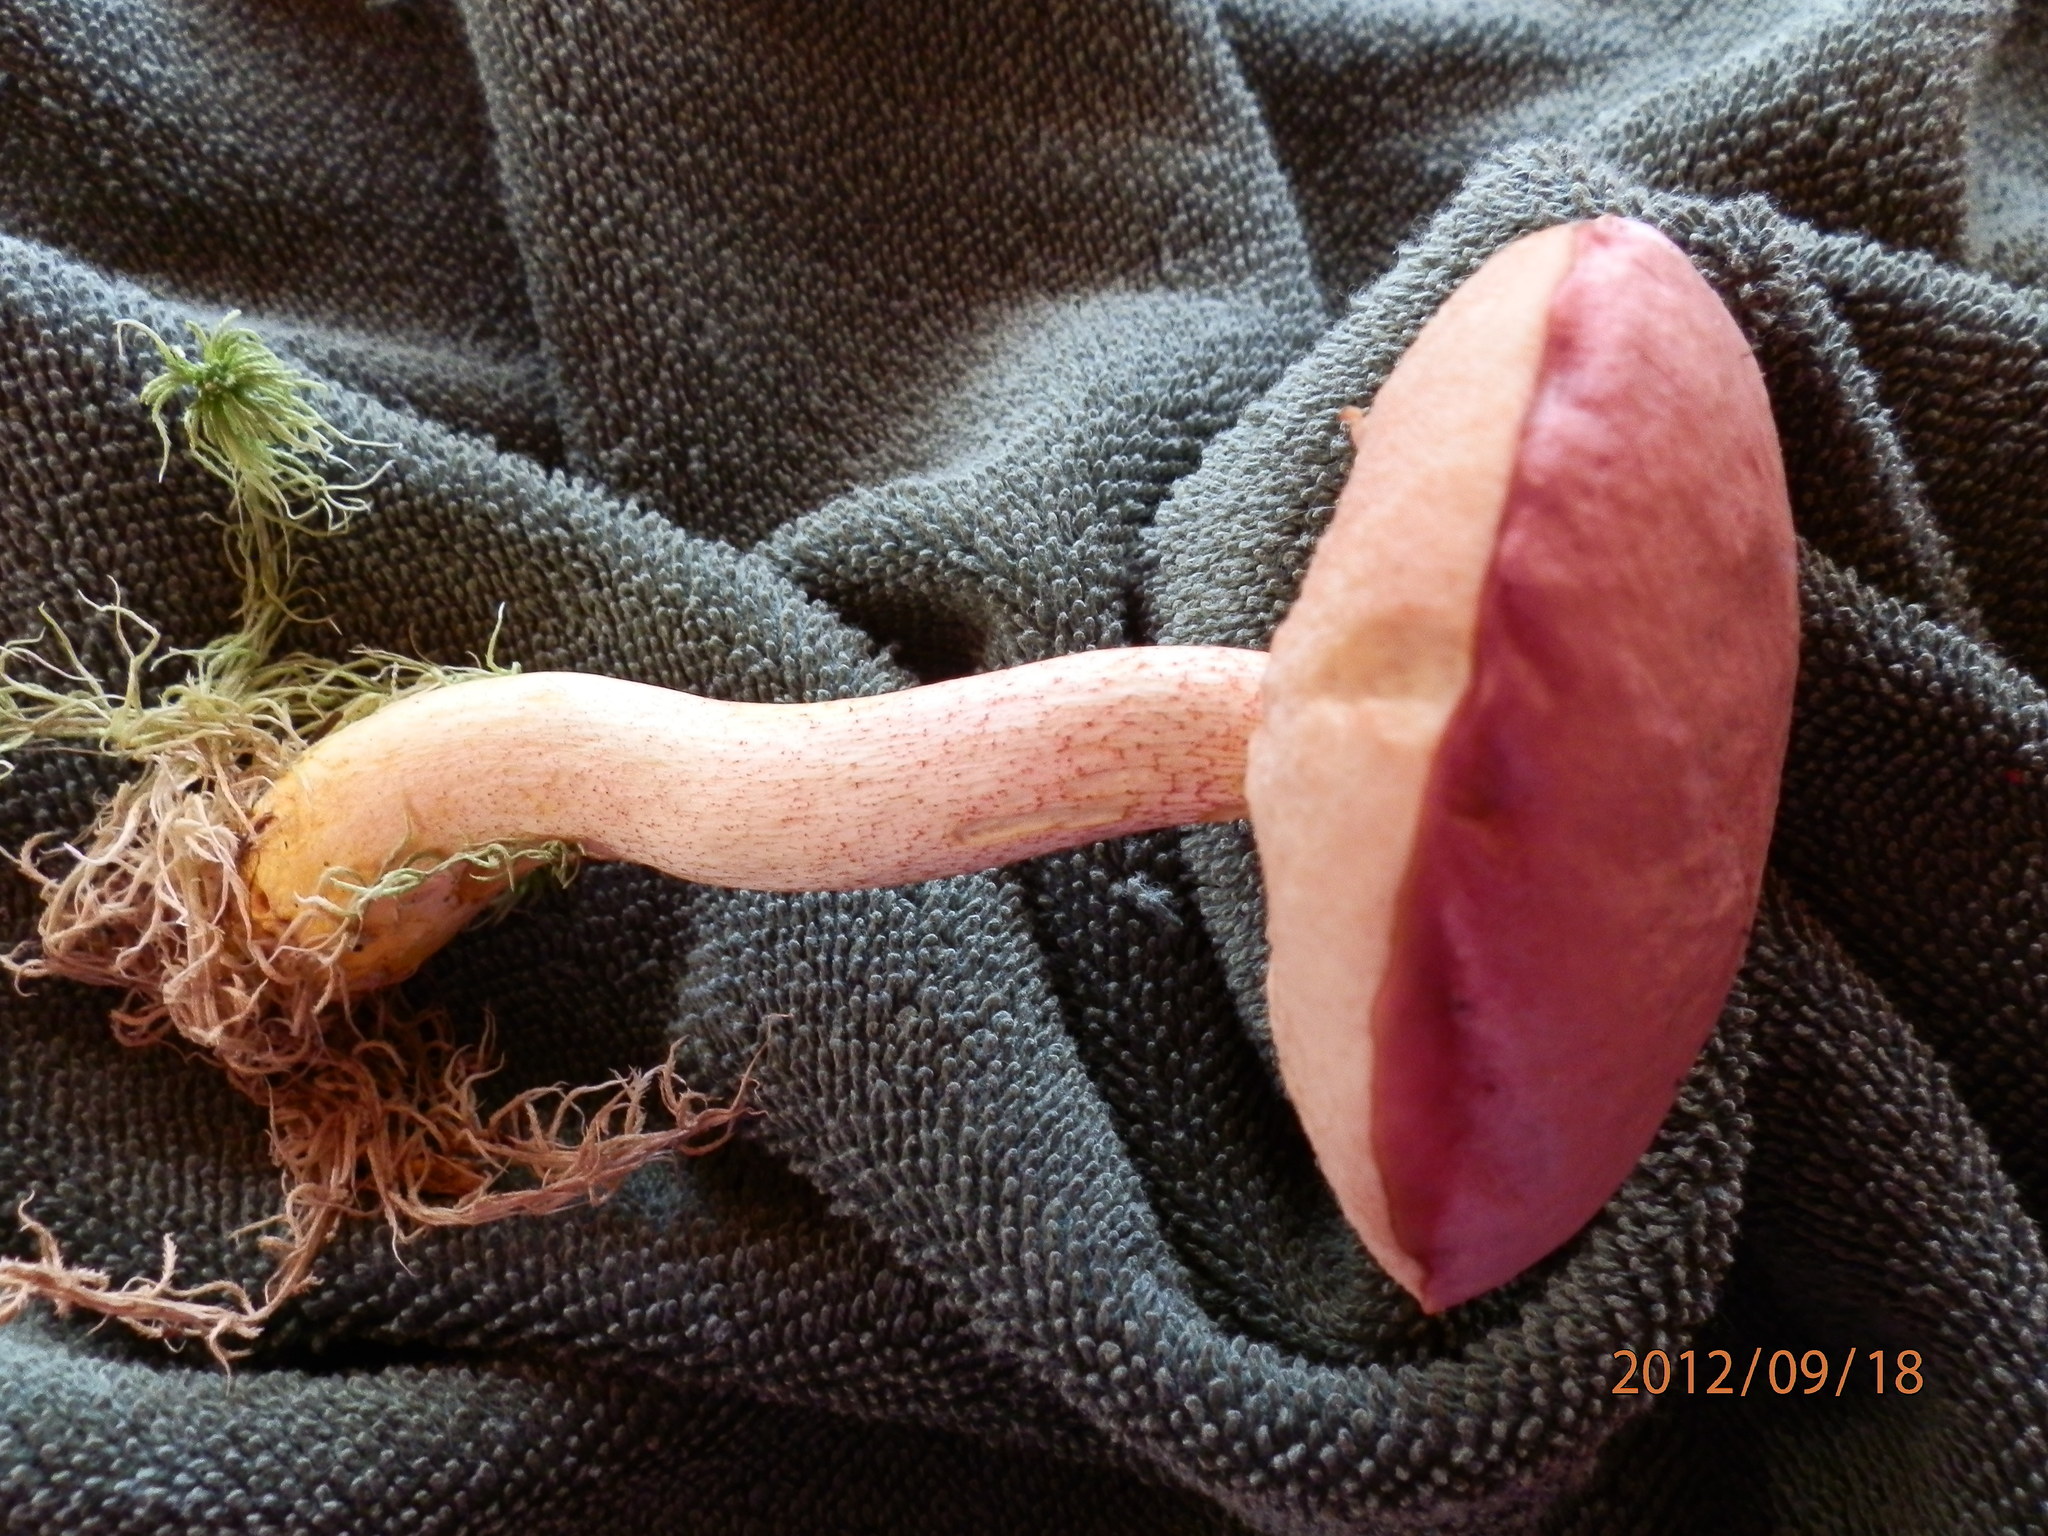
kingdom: Fungi
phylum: Basidiomycota
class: Agaricomycetes
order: Boletales
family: Boletaceae
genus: Harrya
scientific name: Harrya chromipes
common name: Chrome-footed bolete
